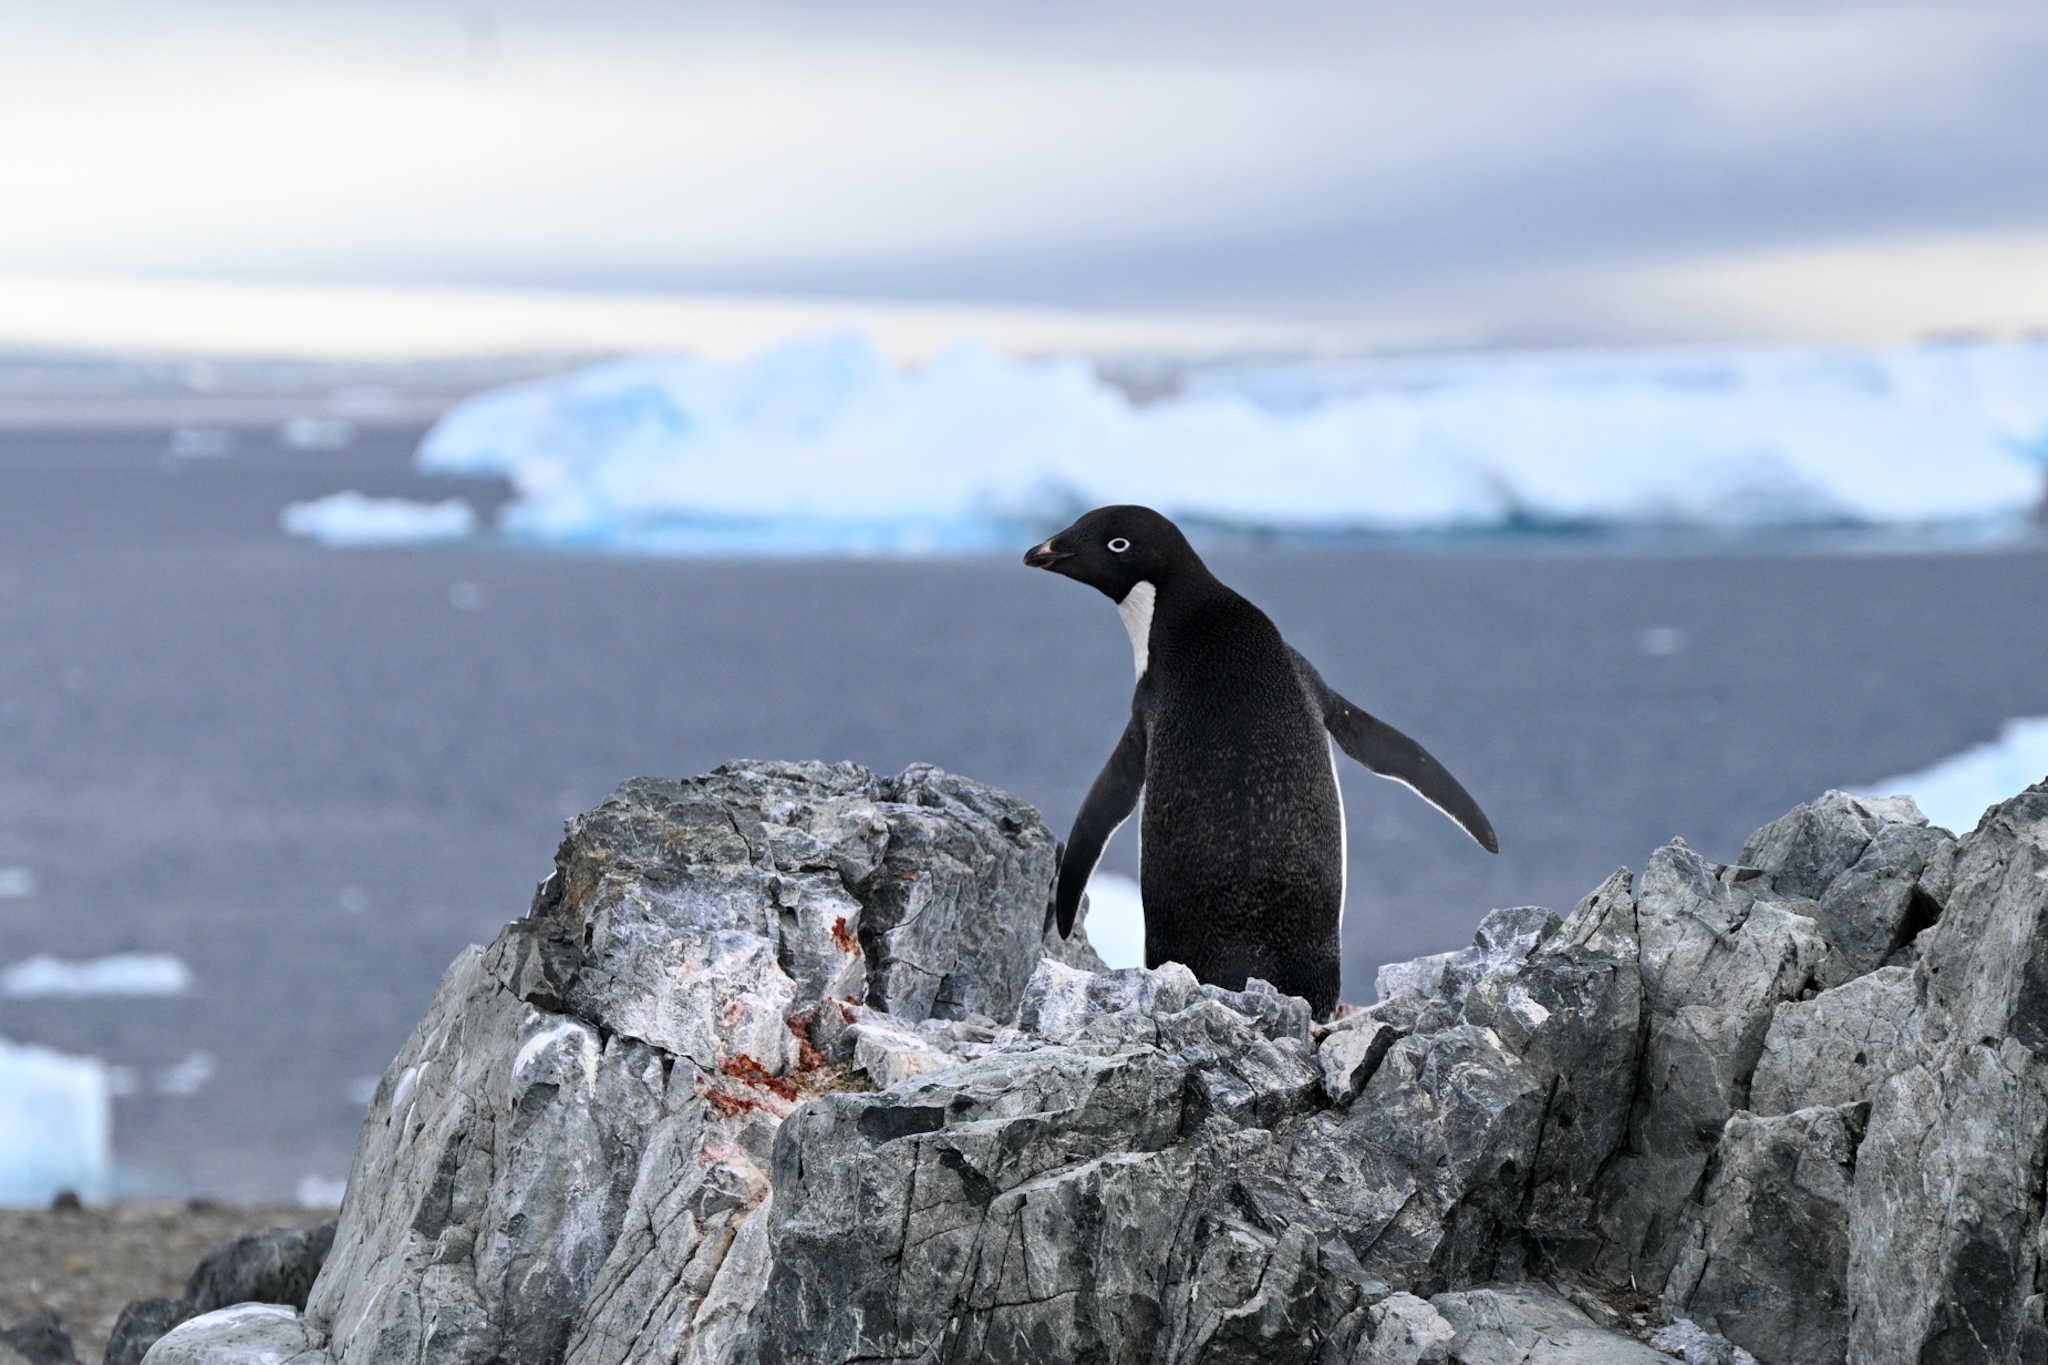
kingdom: Animalia
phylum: Chordata
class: Aves
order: Sphenisciformes
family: Spheniscidae
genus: Pygoscelis
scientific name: Pygoscelis adeliae
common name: Adelie penguin
